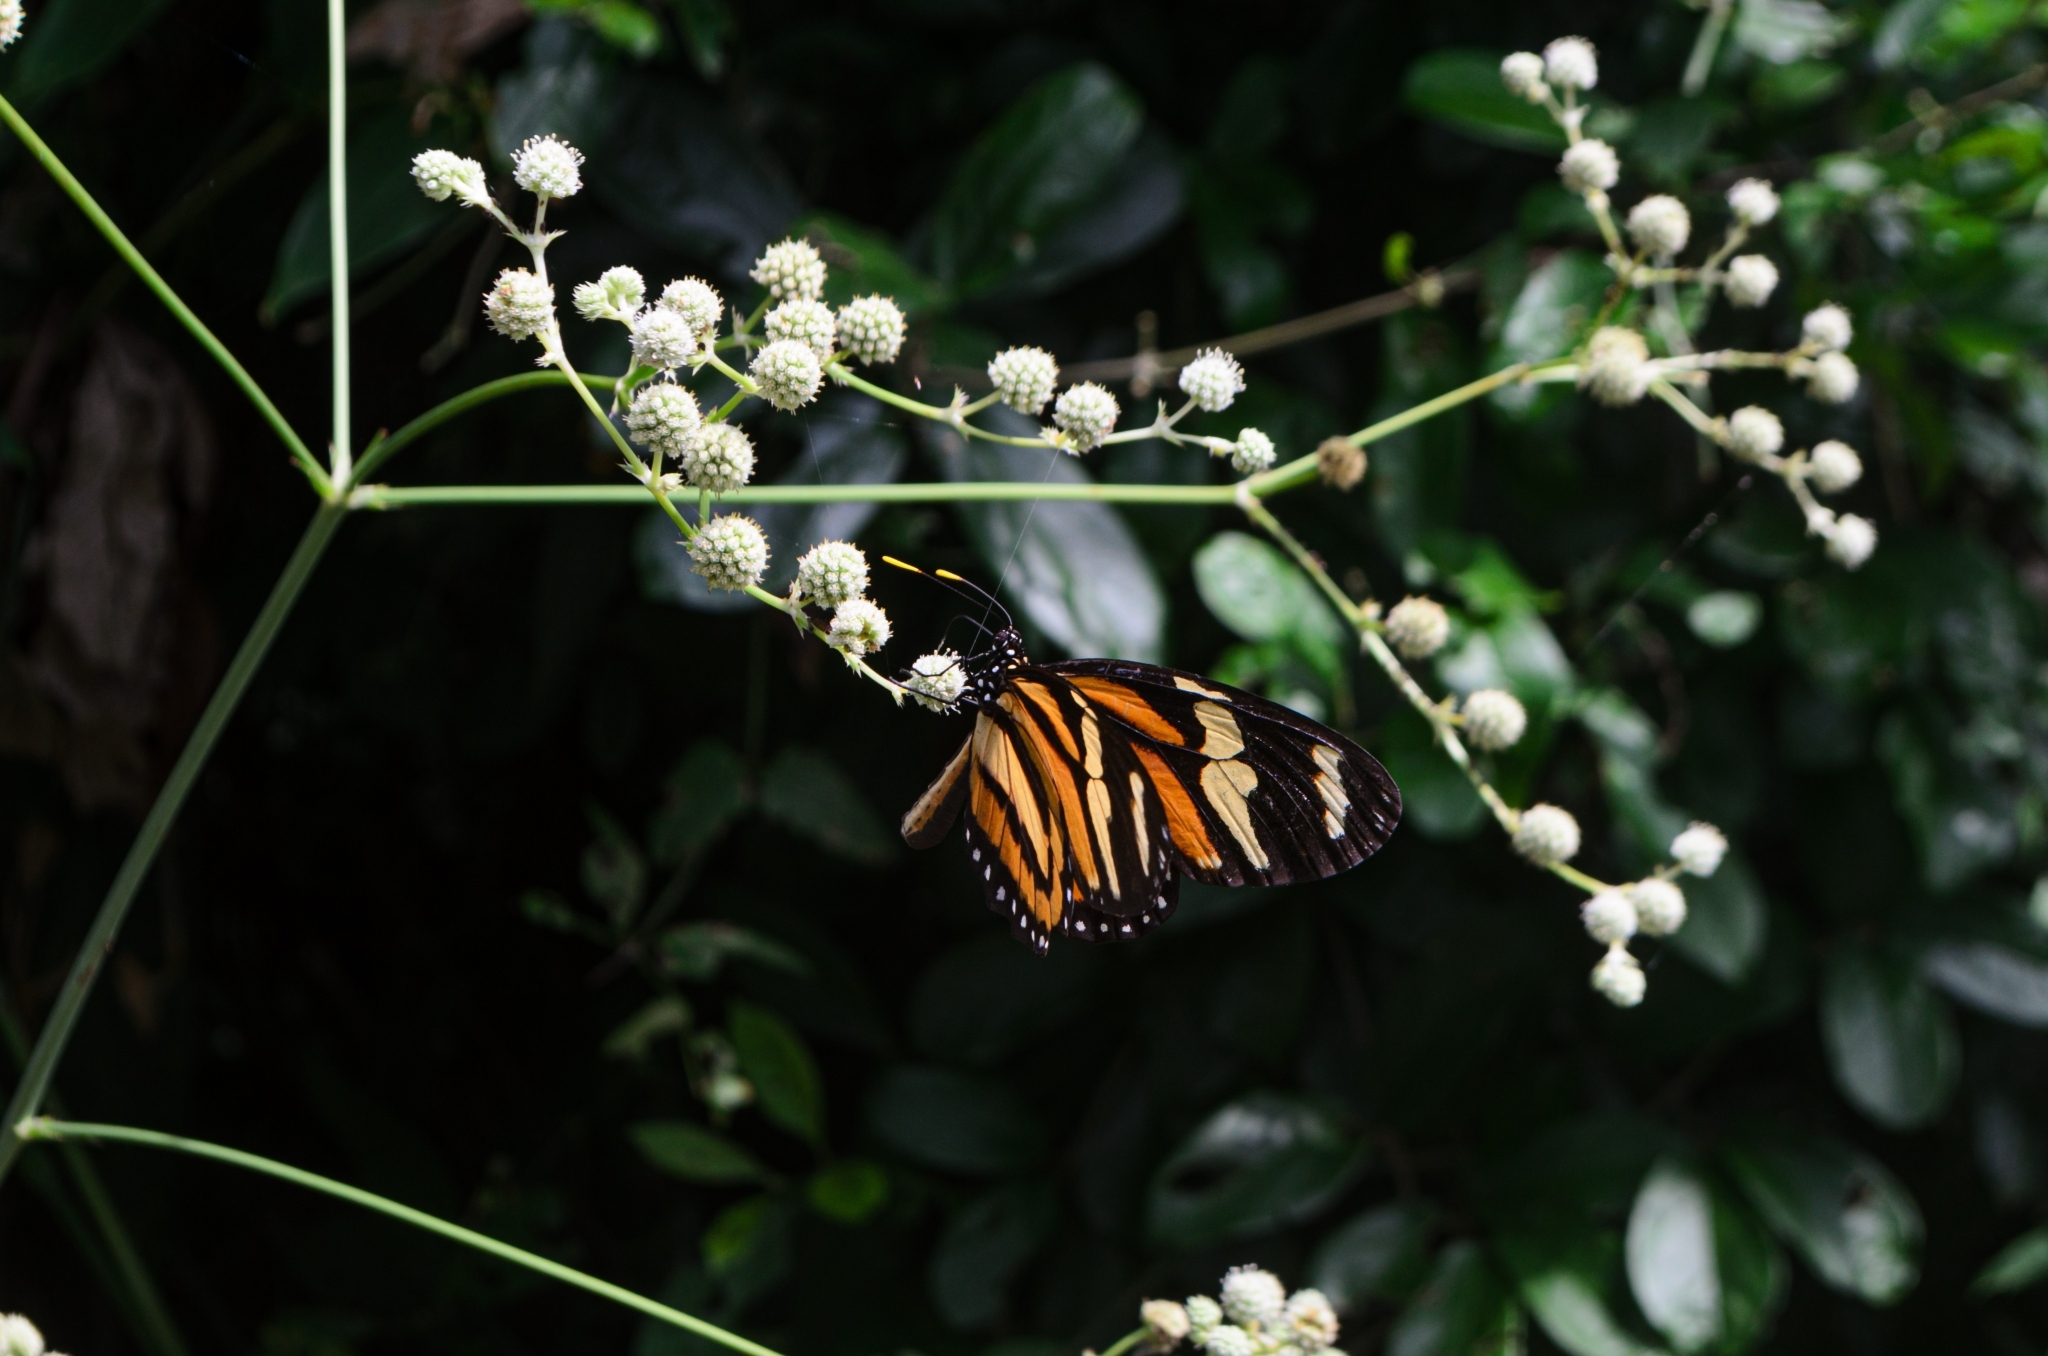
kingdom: Animalia
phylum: Arthropoda
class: Insecta
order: Lepidoptera
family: Nymphalidae
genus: Lycorea
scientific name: Lycorea cleobaea
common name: Tiger mimic-queen
